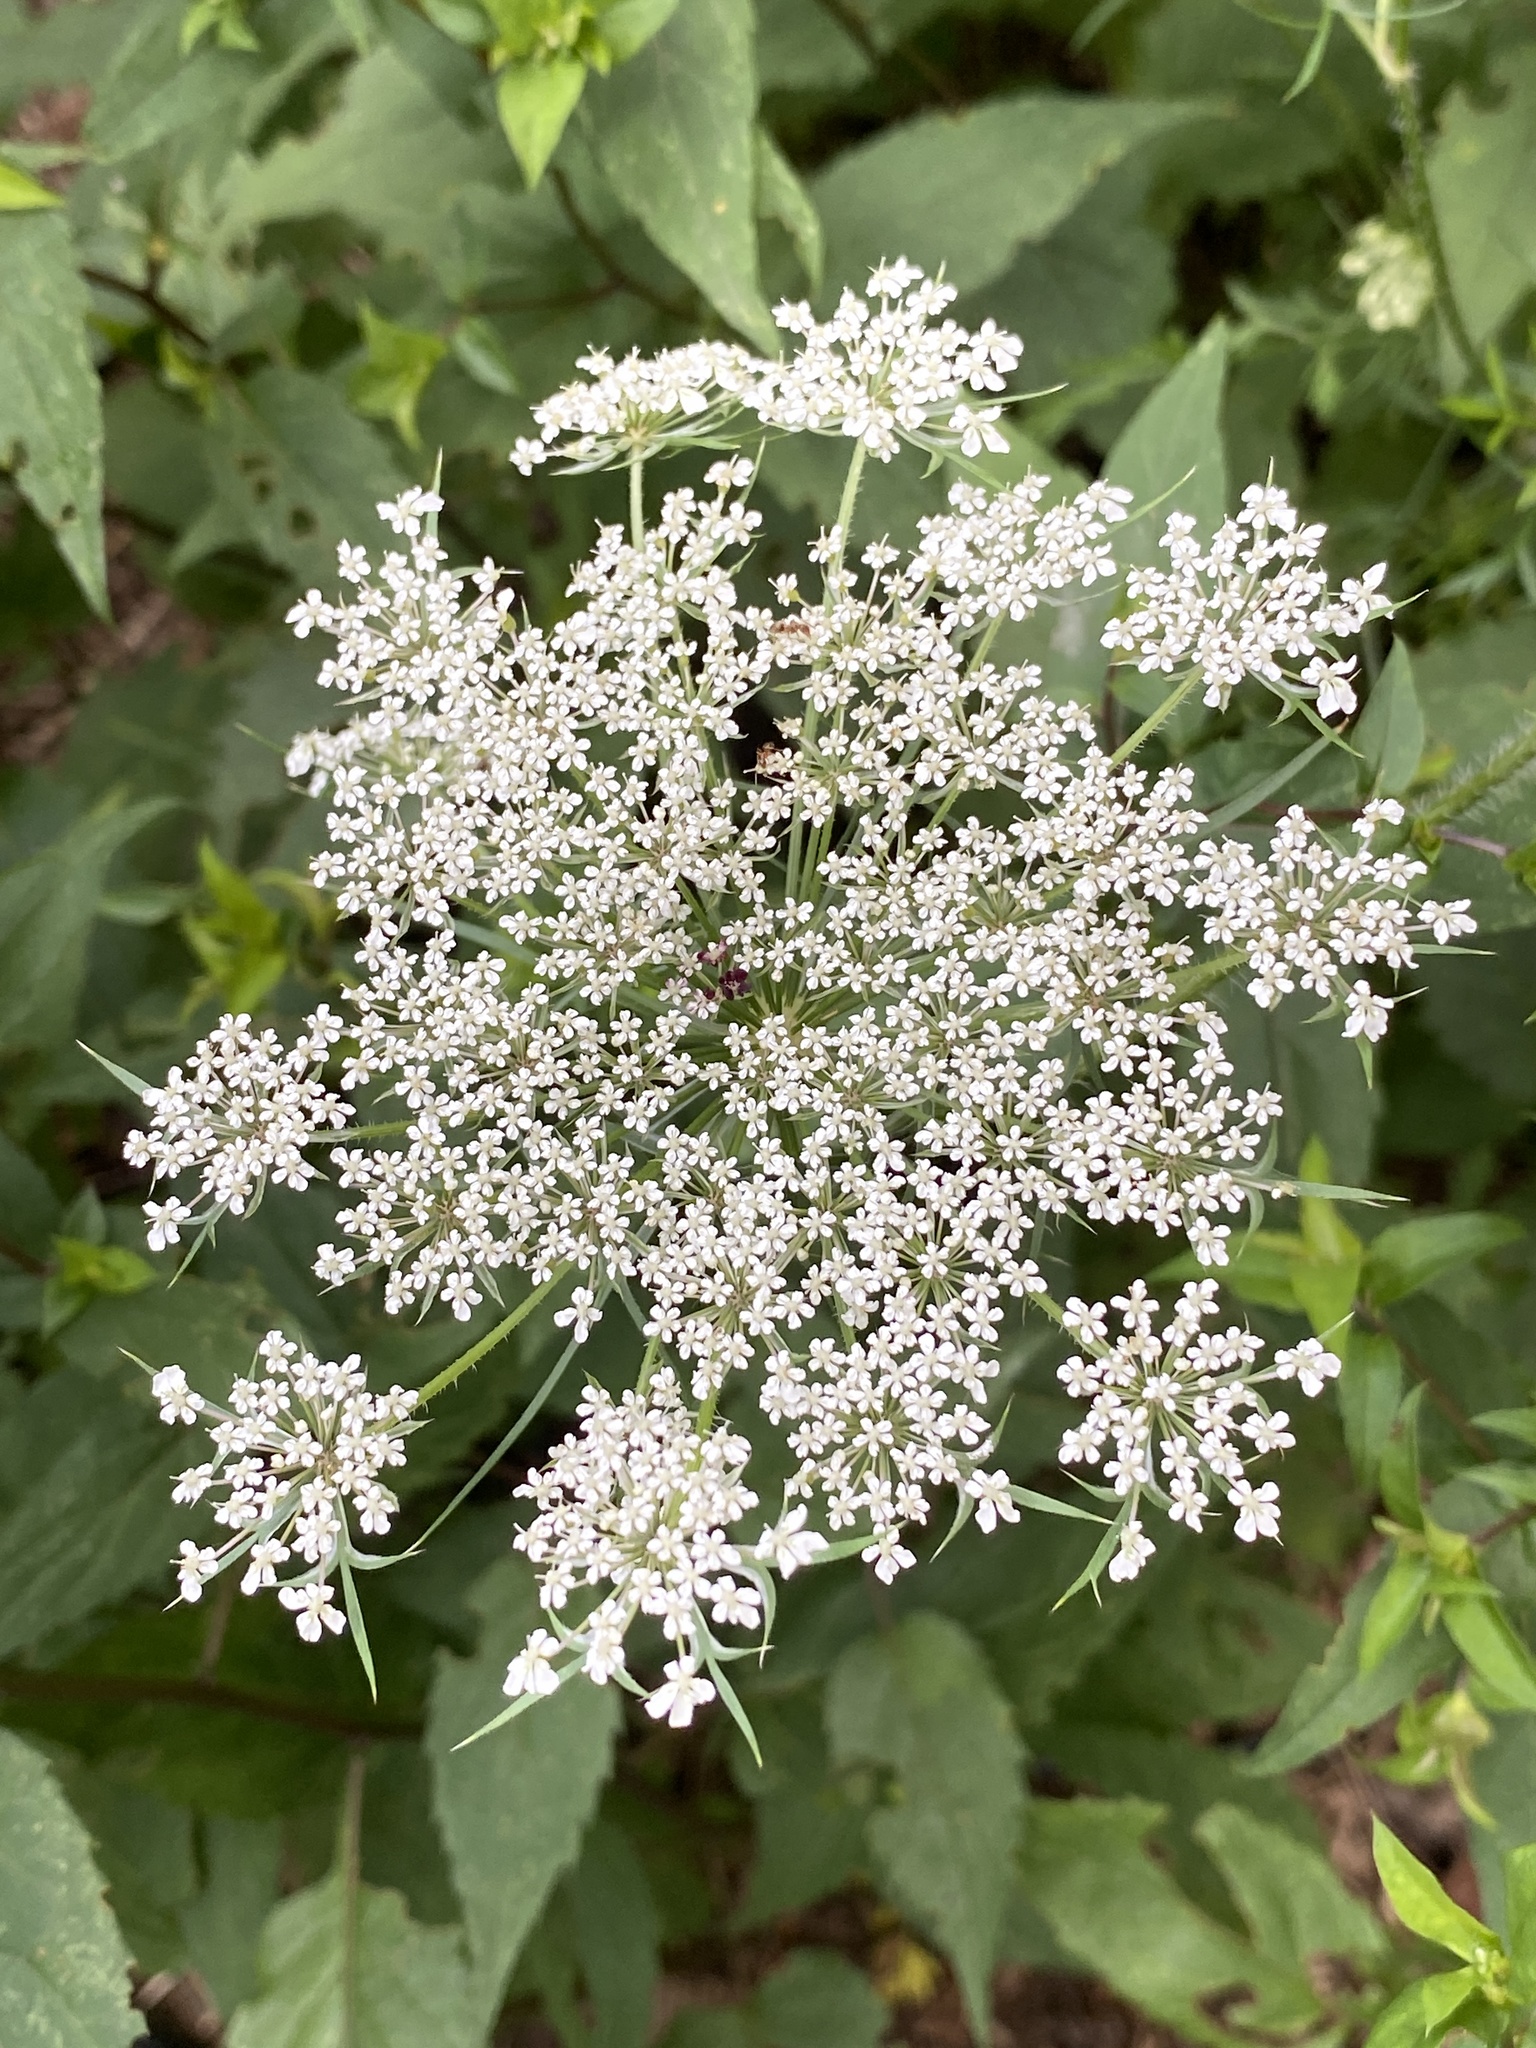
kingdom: Plantae
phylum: Tracheophyta
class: Magnoliopsida
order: Apiales
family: Apiaceae
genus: Daucus
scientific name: Daucus carota
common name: Wild carrot
